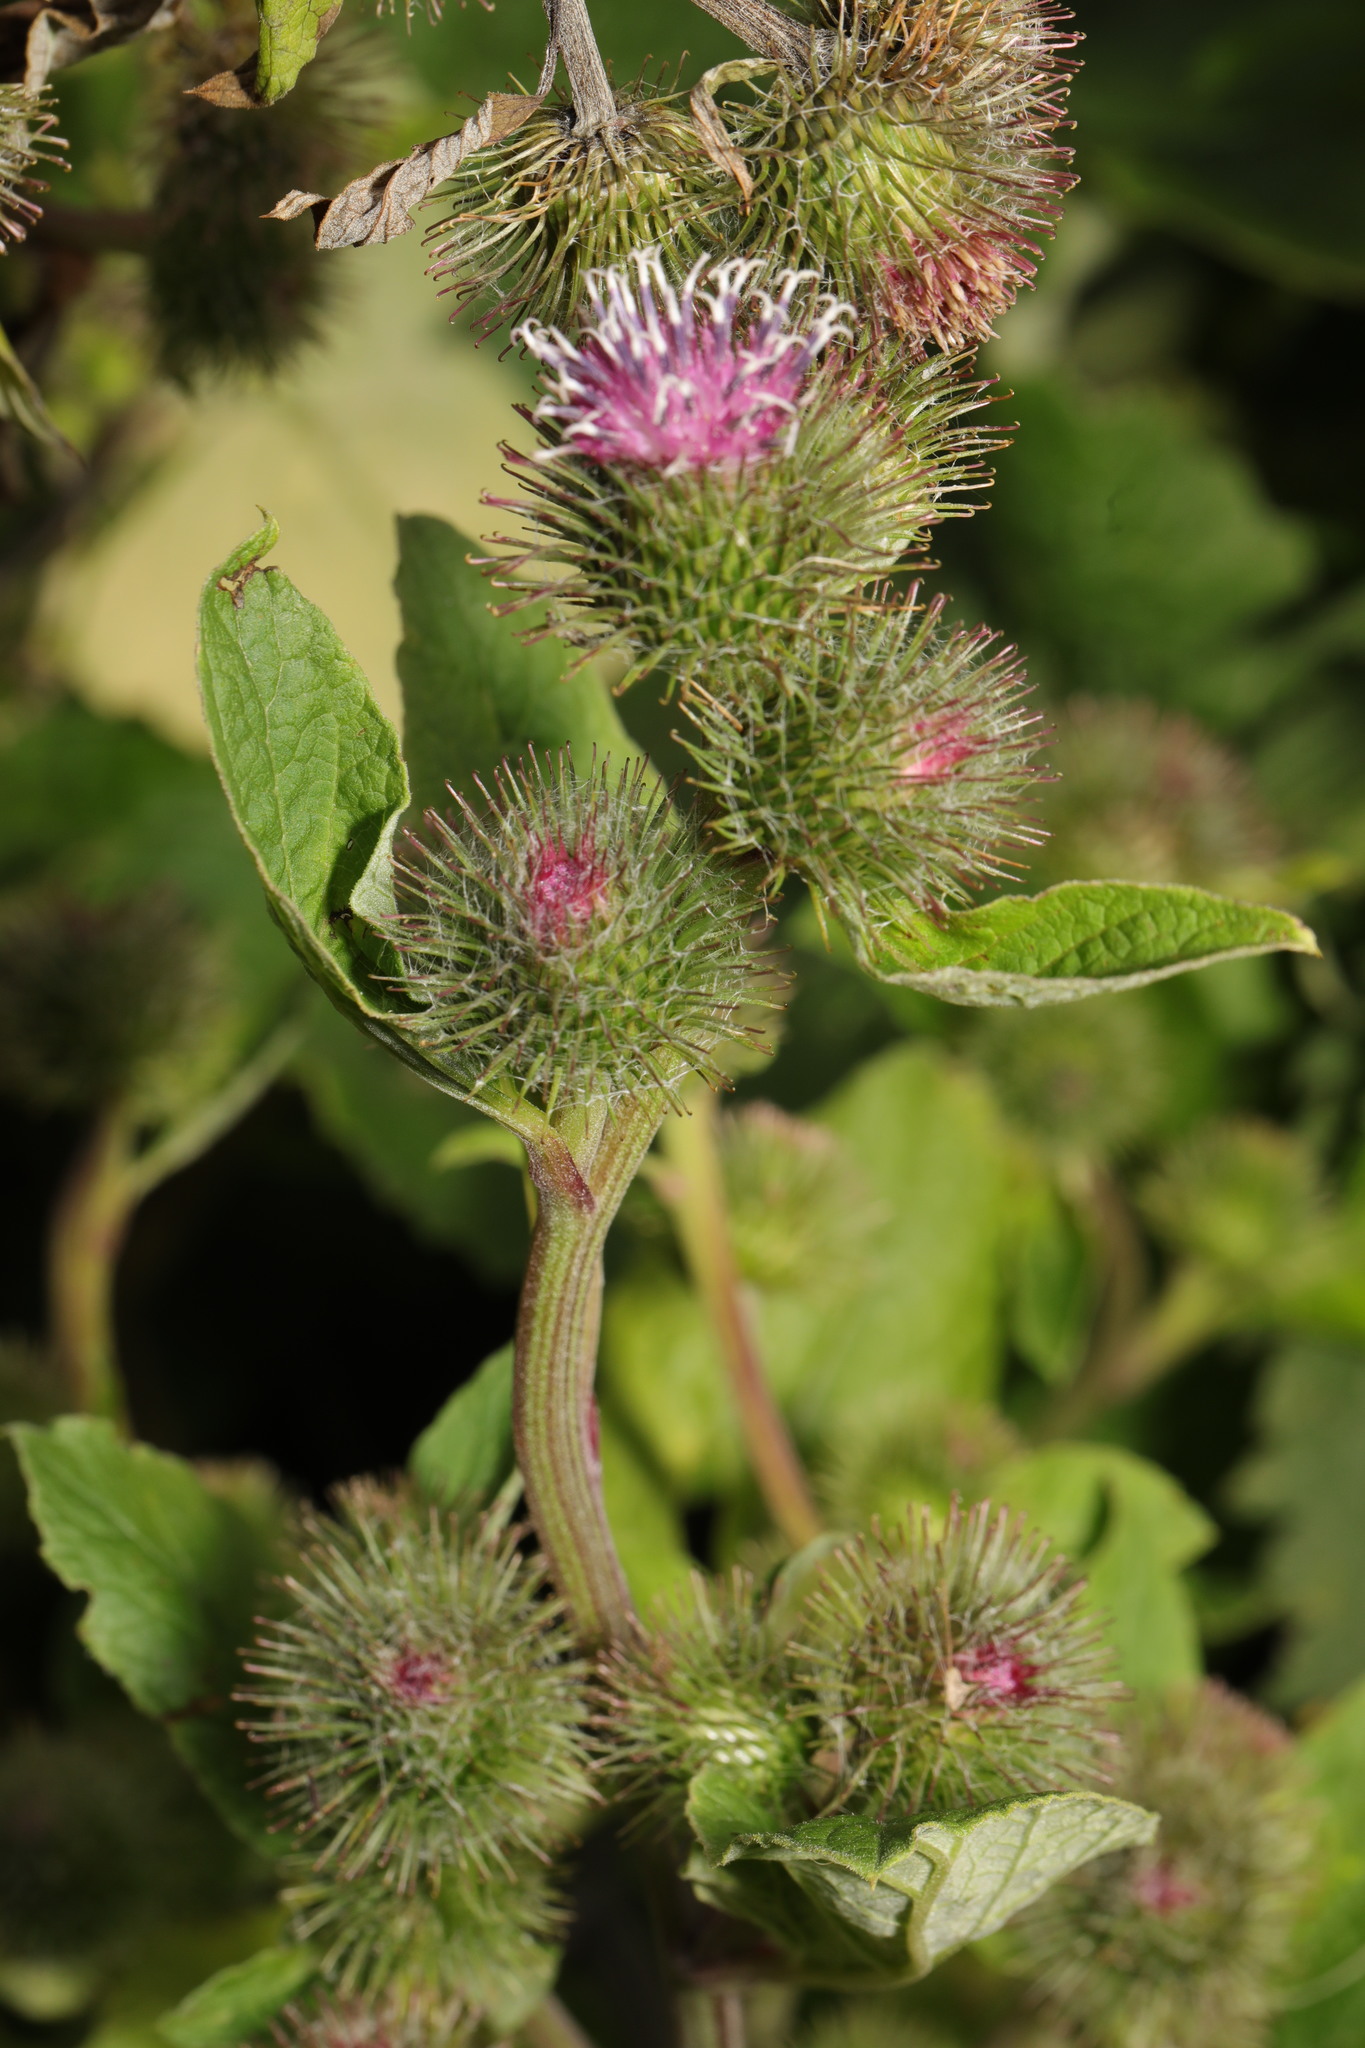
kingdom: Plantae
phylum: Tracheophyta
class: Magnoliopsida
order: Asterales
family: Asteraceae
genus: Arctium
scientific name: Arctium minus
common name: Lesser burdock
